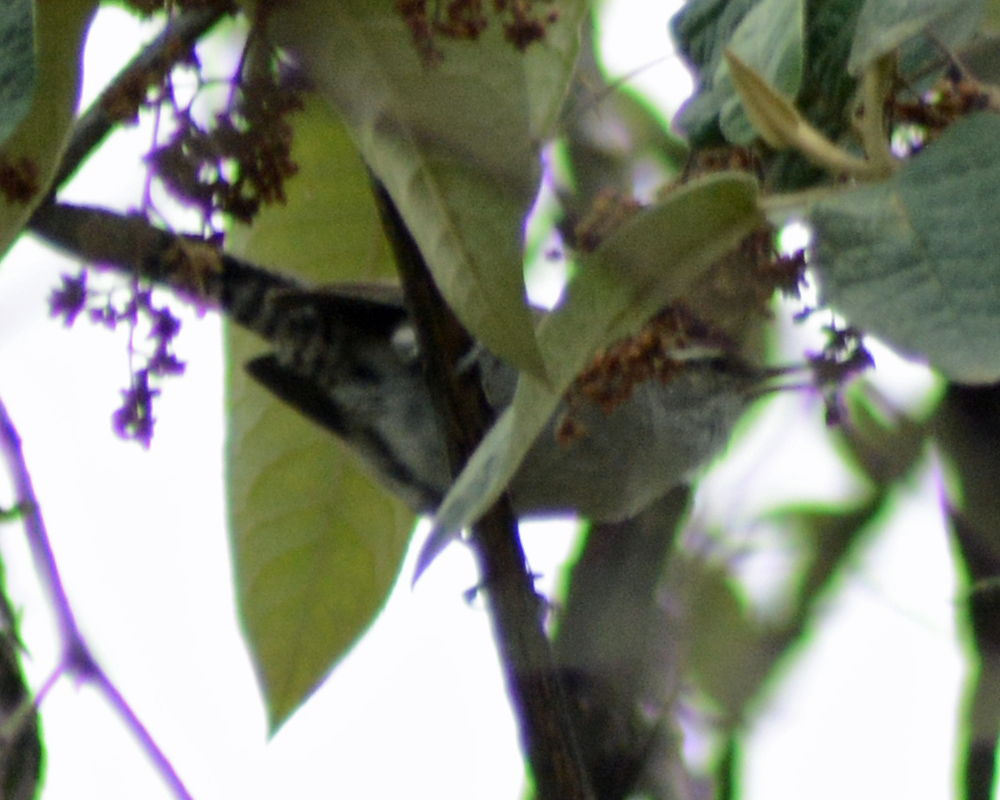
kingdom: Animalia
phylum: Chordata
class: Aves
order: Passeriformes
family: Troglodytidae
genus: Thryomanes
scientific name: Thryomanes bewickii
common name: Bewick's wren
